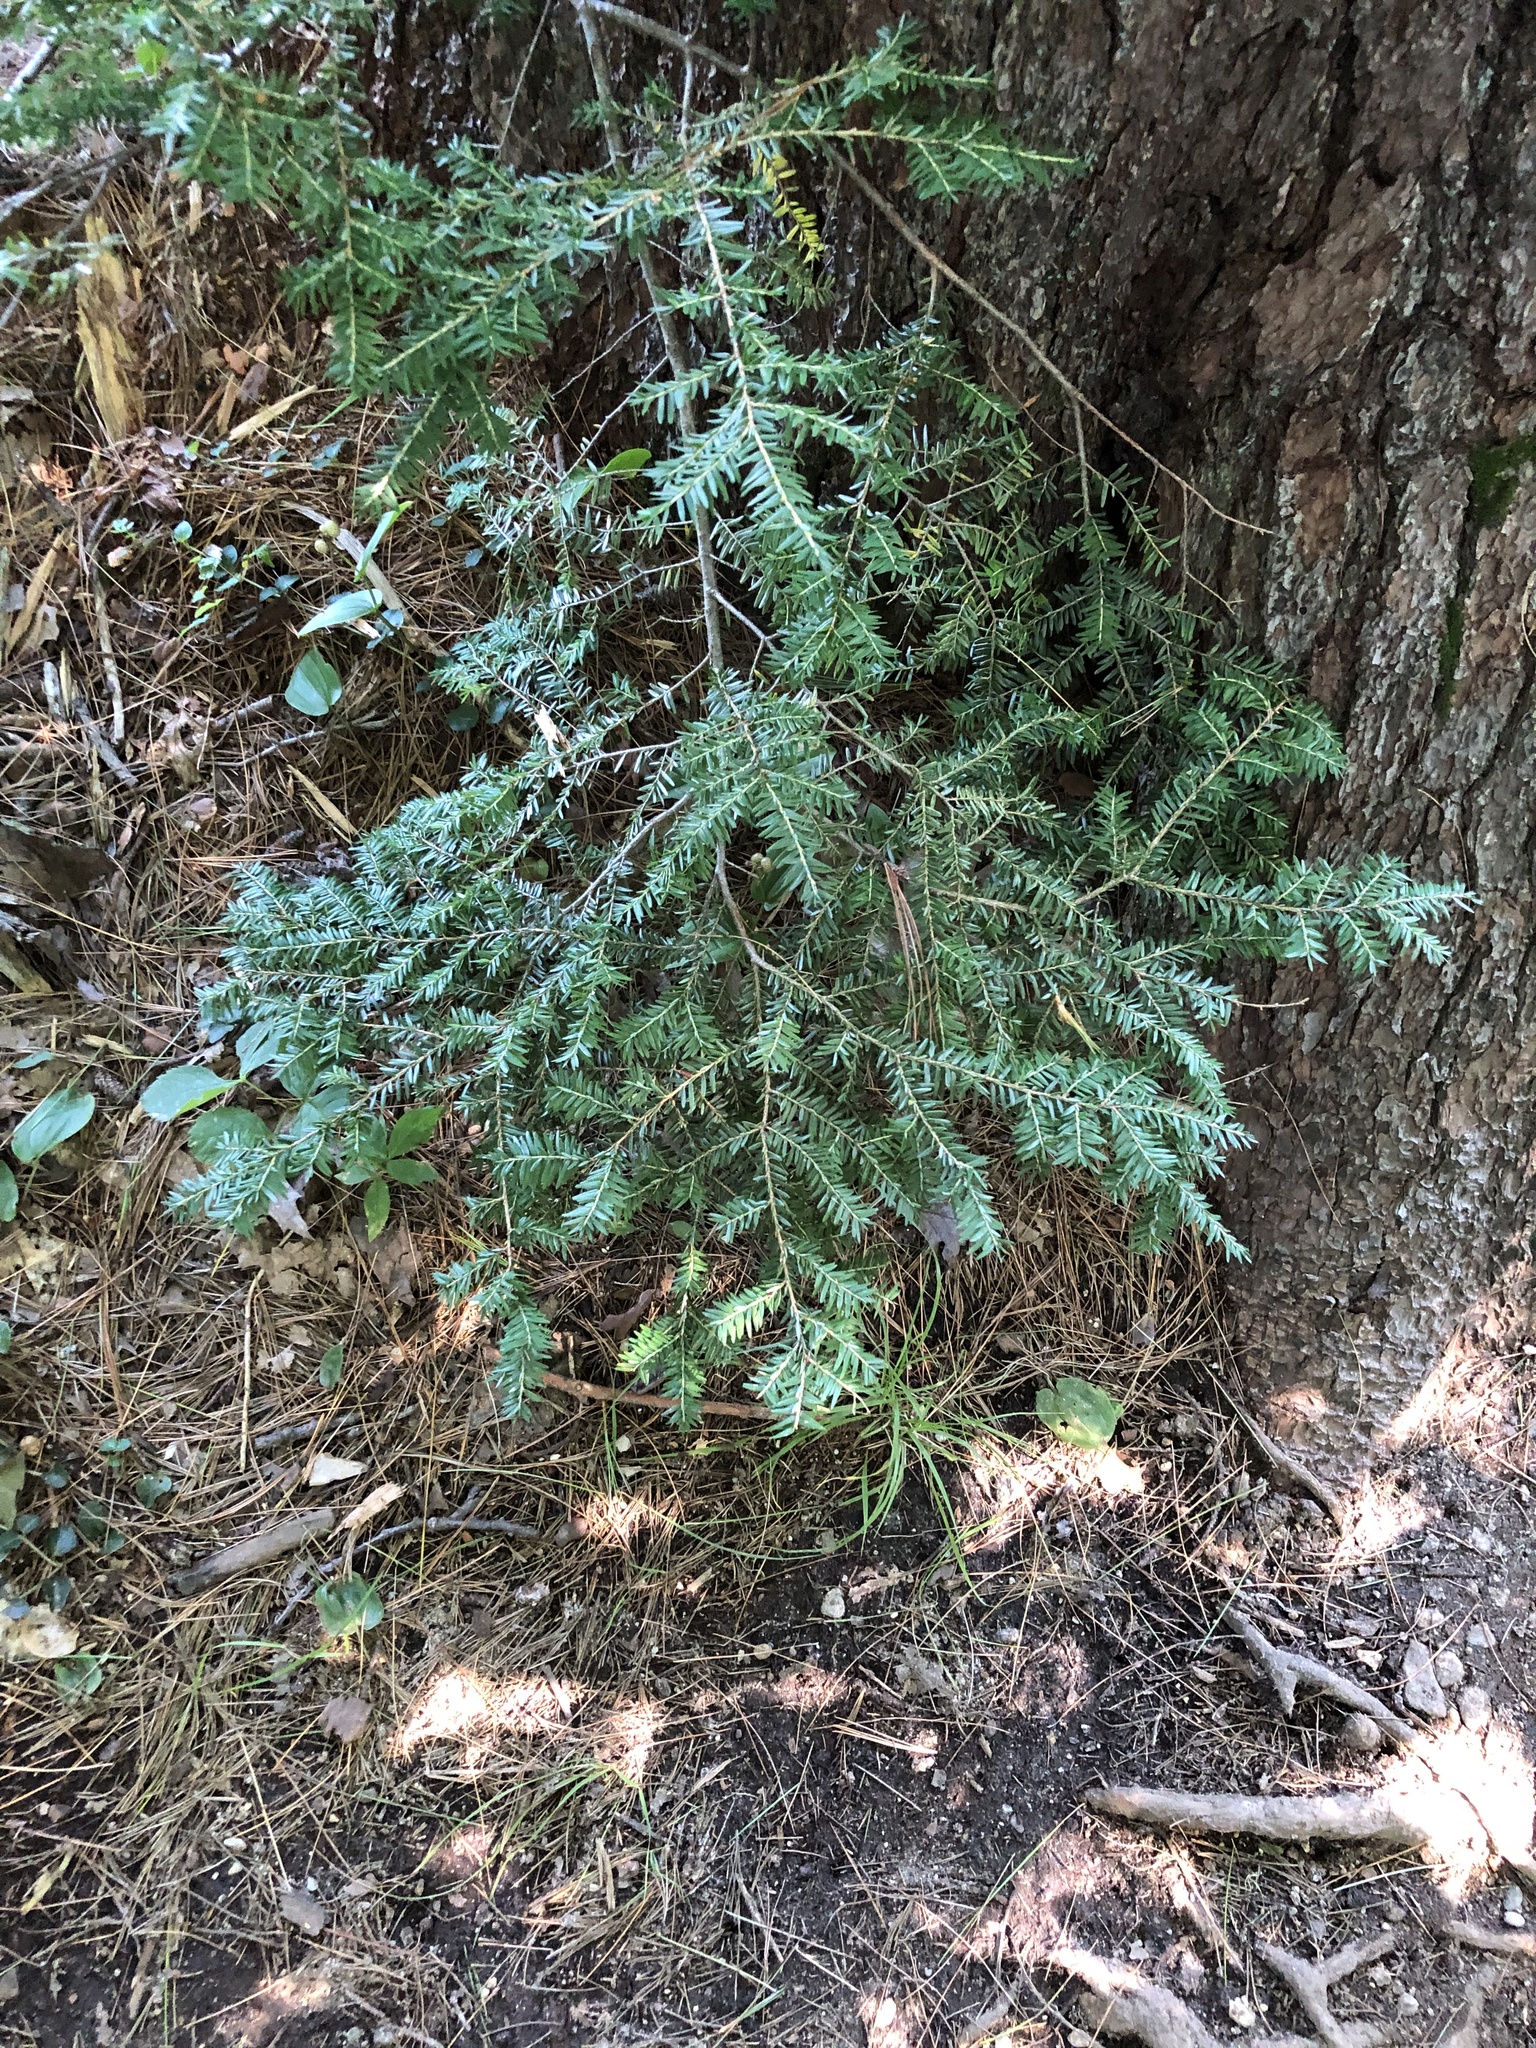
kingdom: Plantae
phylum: Tracheophyta
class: Pinopsida
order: Pinales
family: Pinaceae
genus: Tsuga
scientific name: Tsuga canadensis
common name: Eastern hemlock
